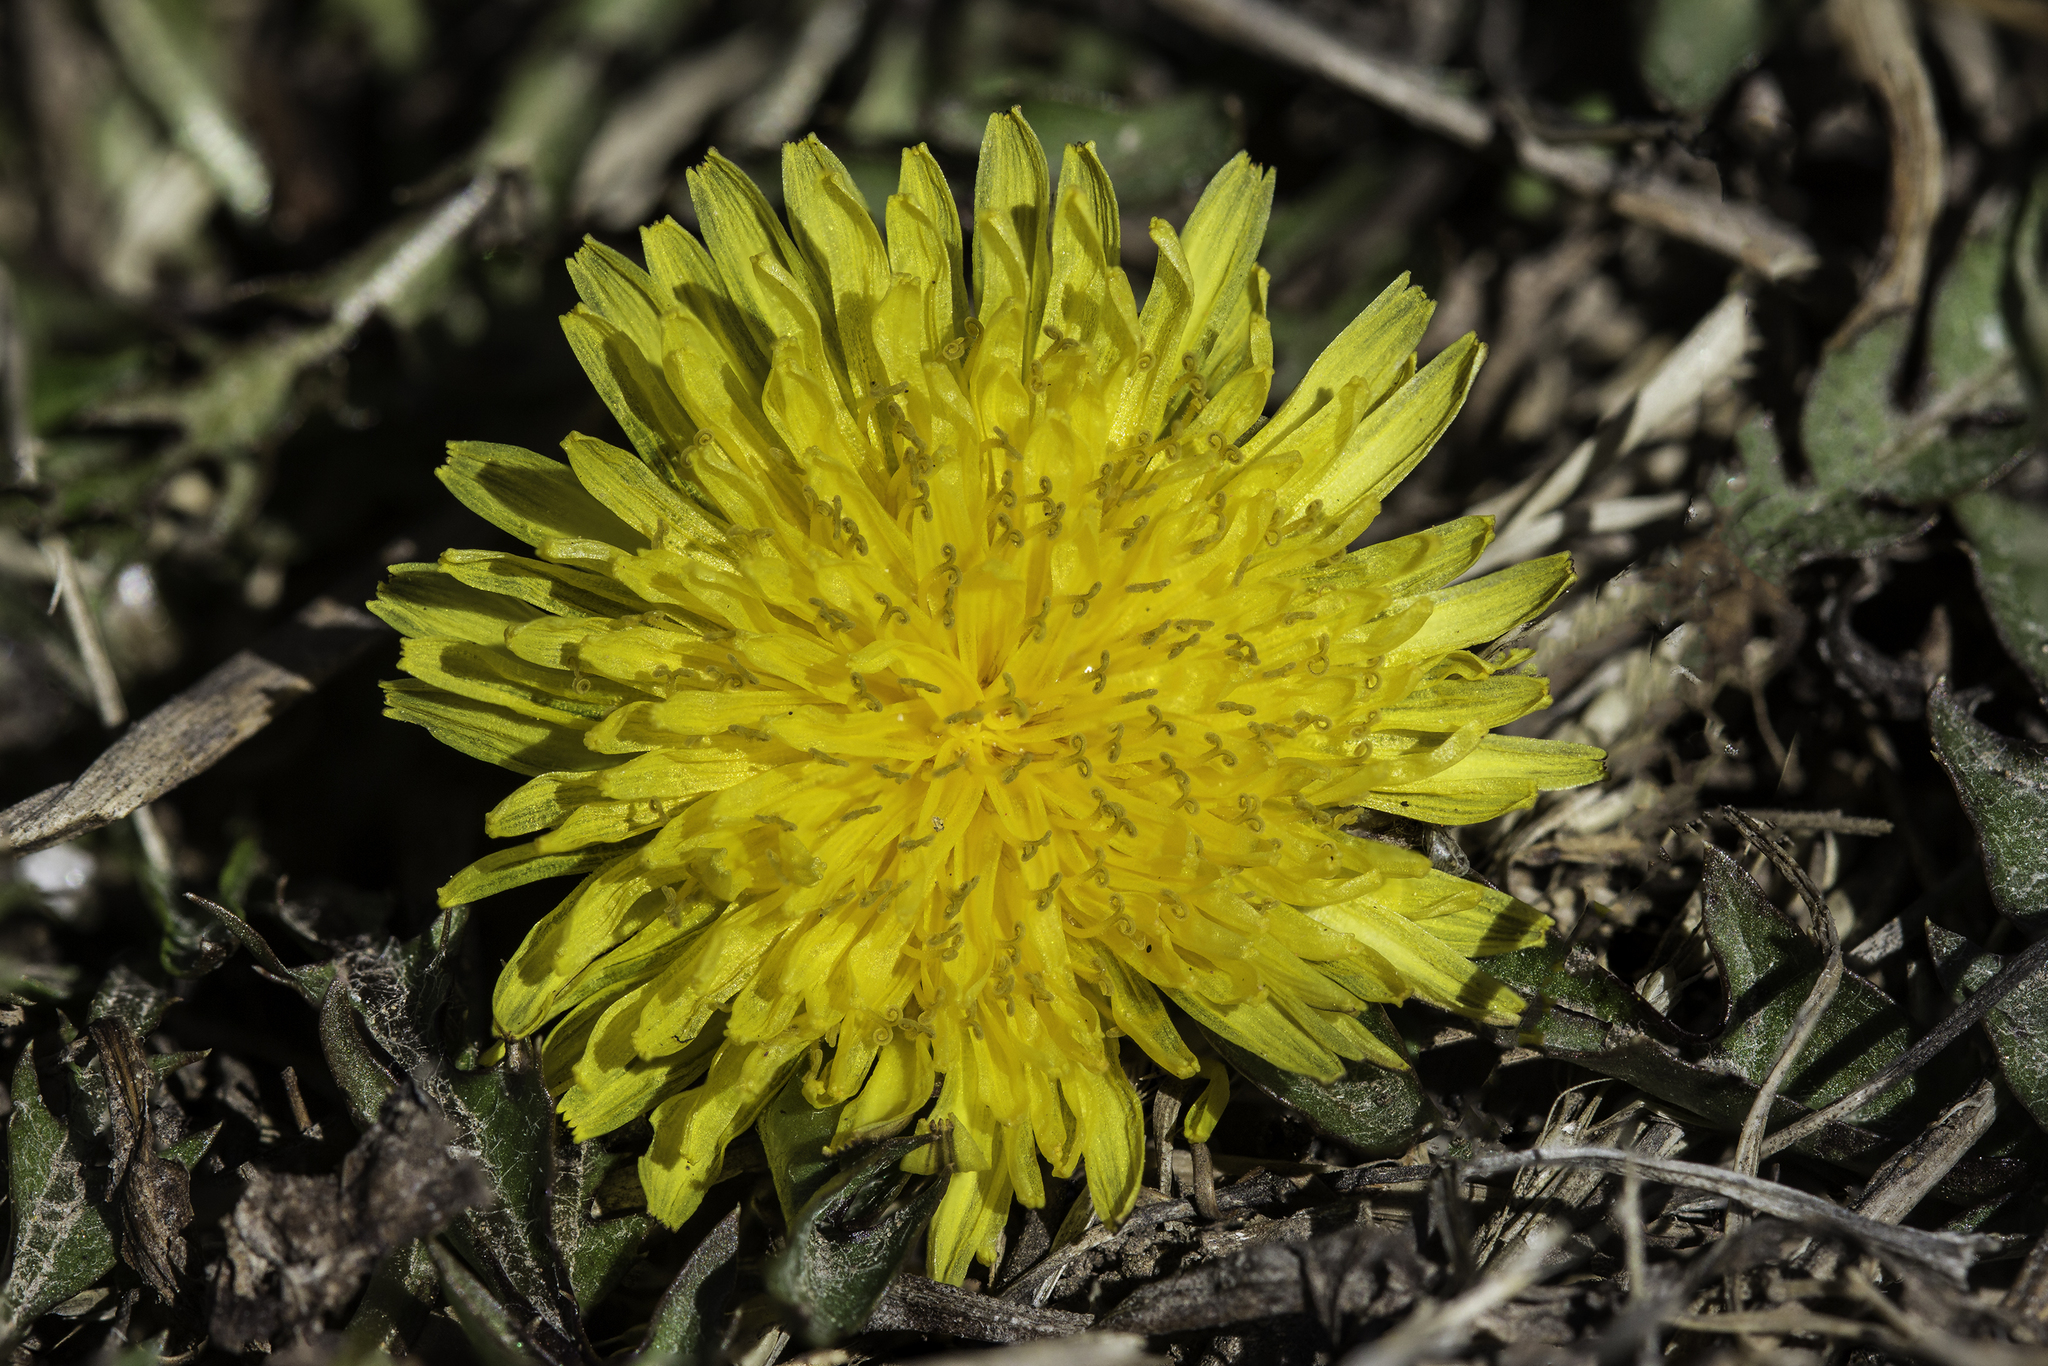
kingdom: Plantae
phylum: Tracheophyta
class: Magnoliopsida
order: Asterales
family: Asteraceae
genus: Taraxacum
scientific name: Taraxacum officinale
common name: Common dandelion
